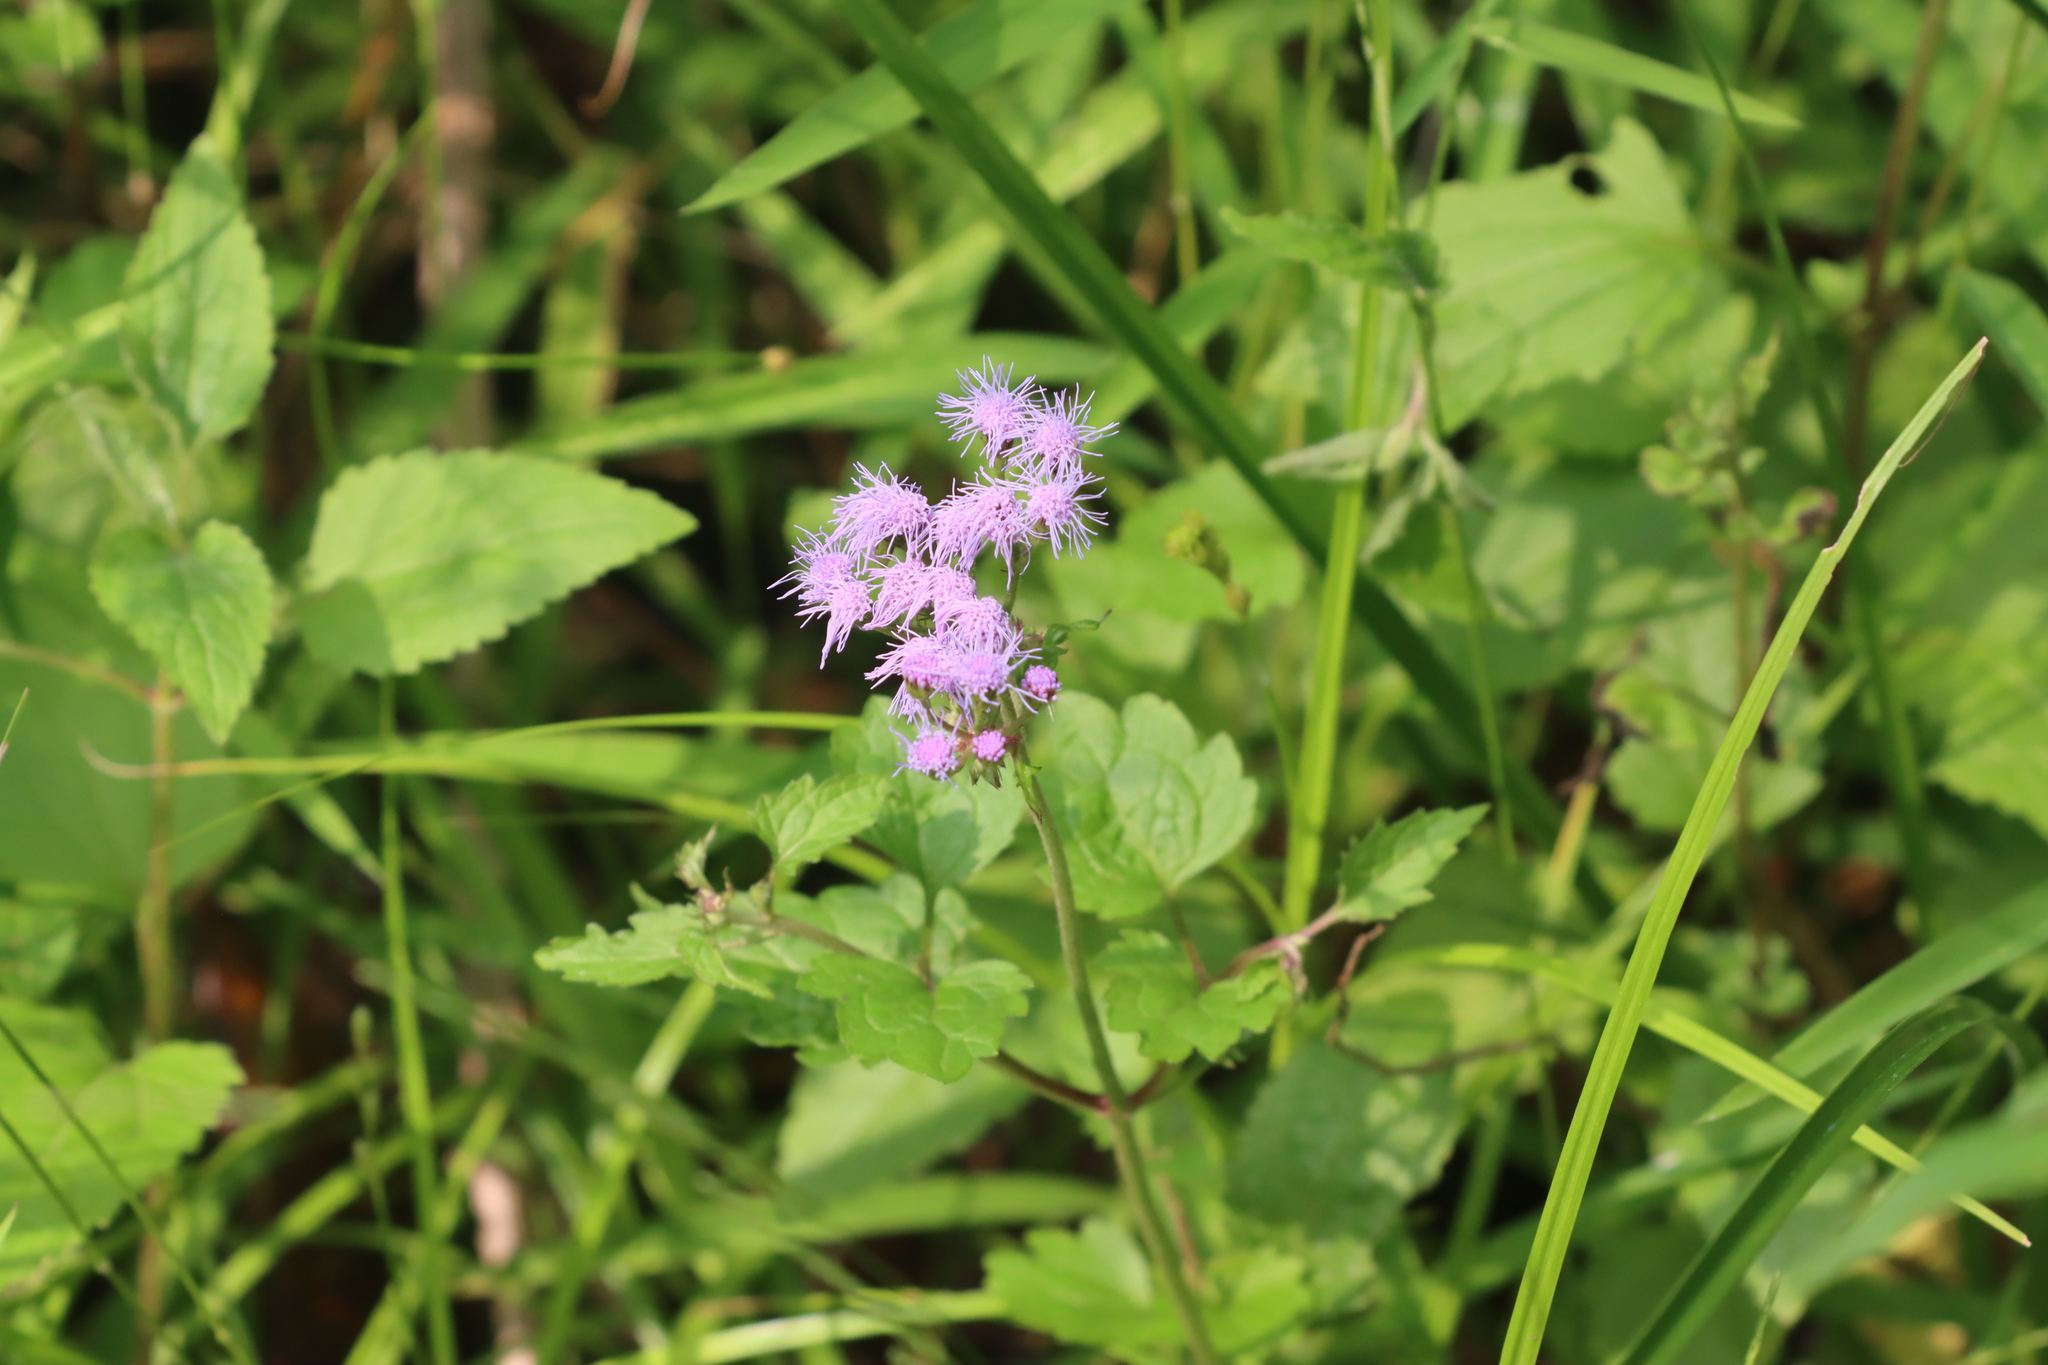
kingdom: Plantae
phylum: Tracheophyta
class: Magnoliopsida
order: Asterales
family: Asteraceae
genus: Conoclinium
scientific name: Conoclinium coelestinum
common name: Blue mistflower
